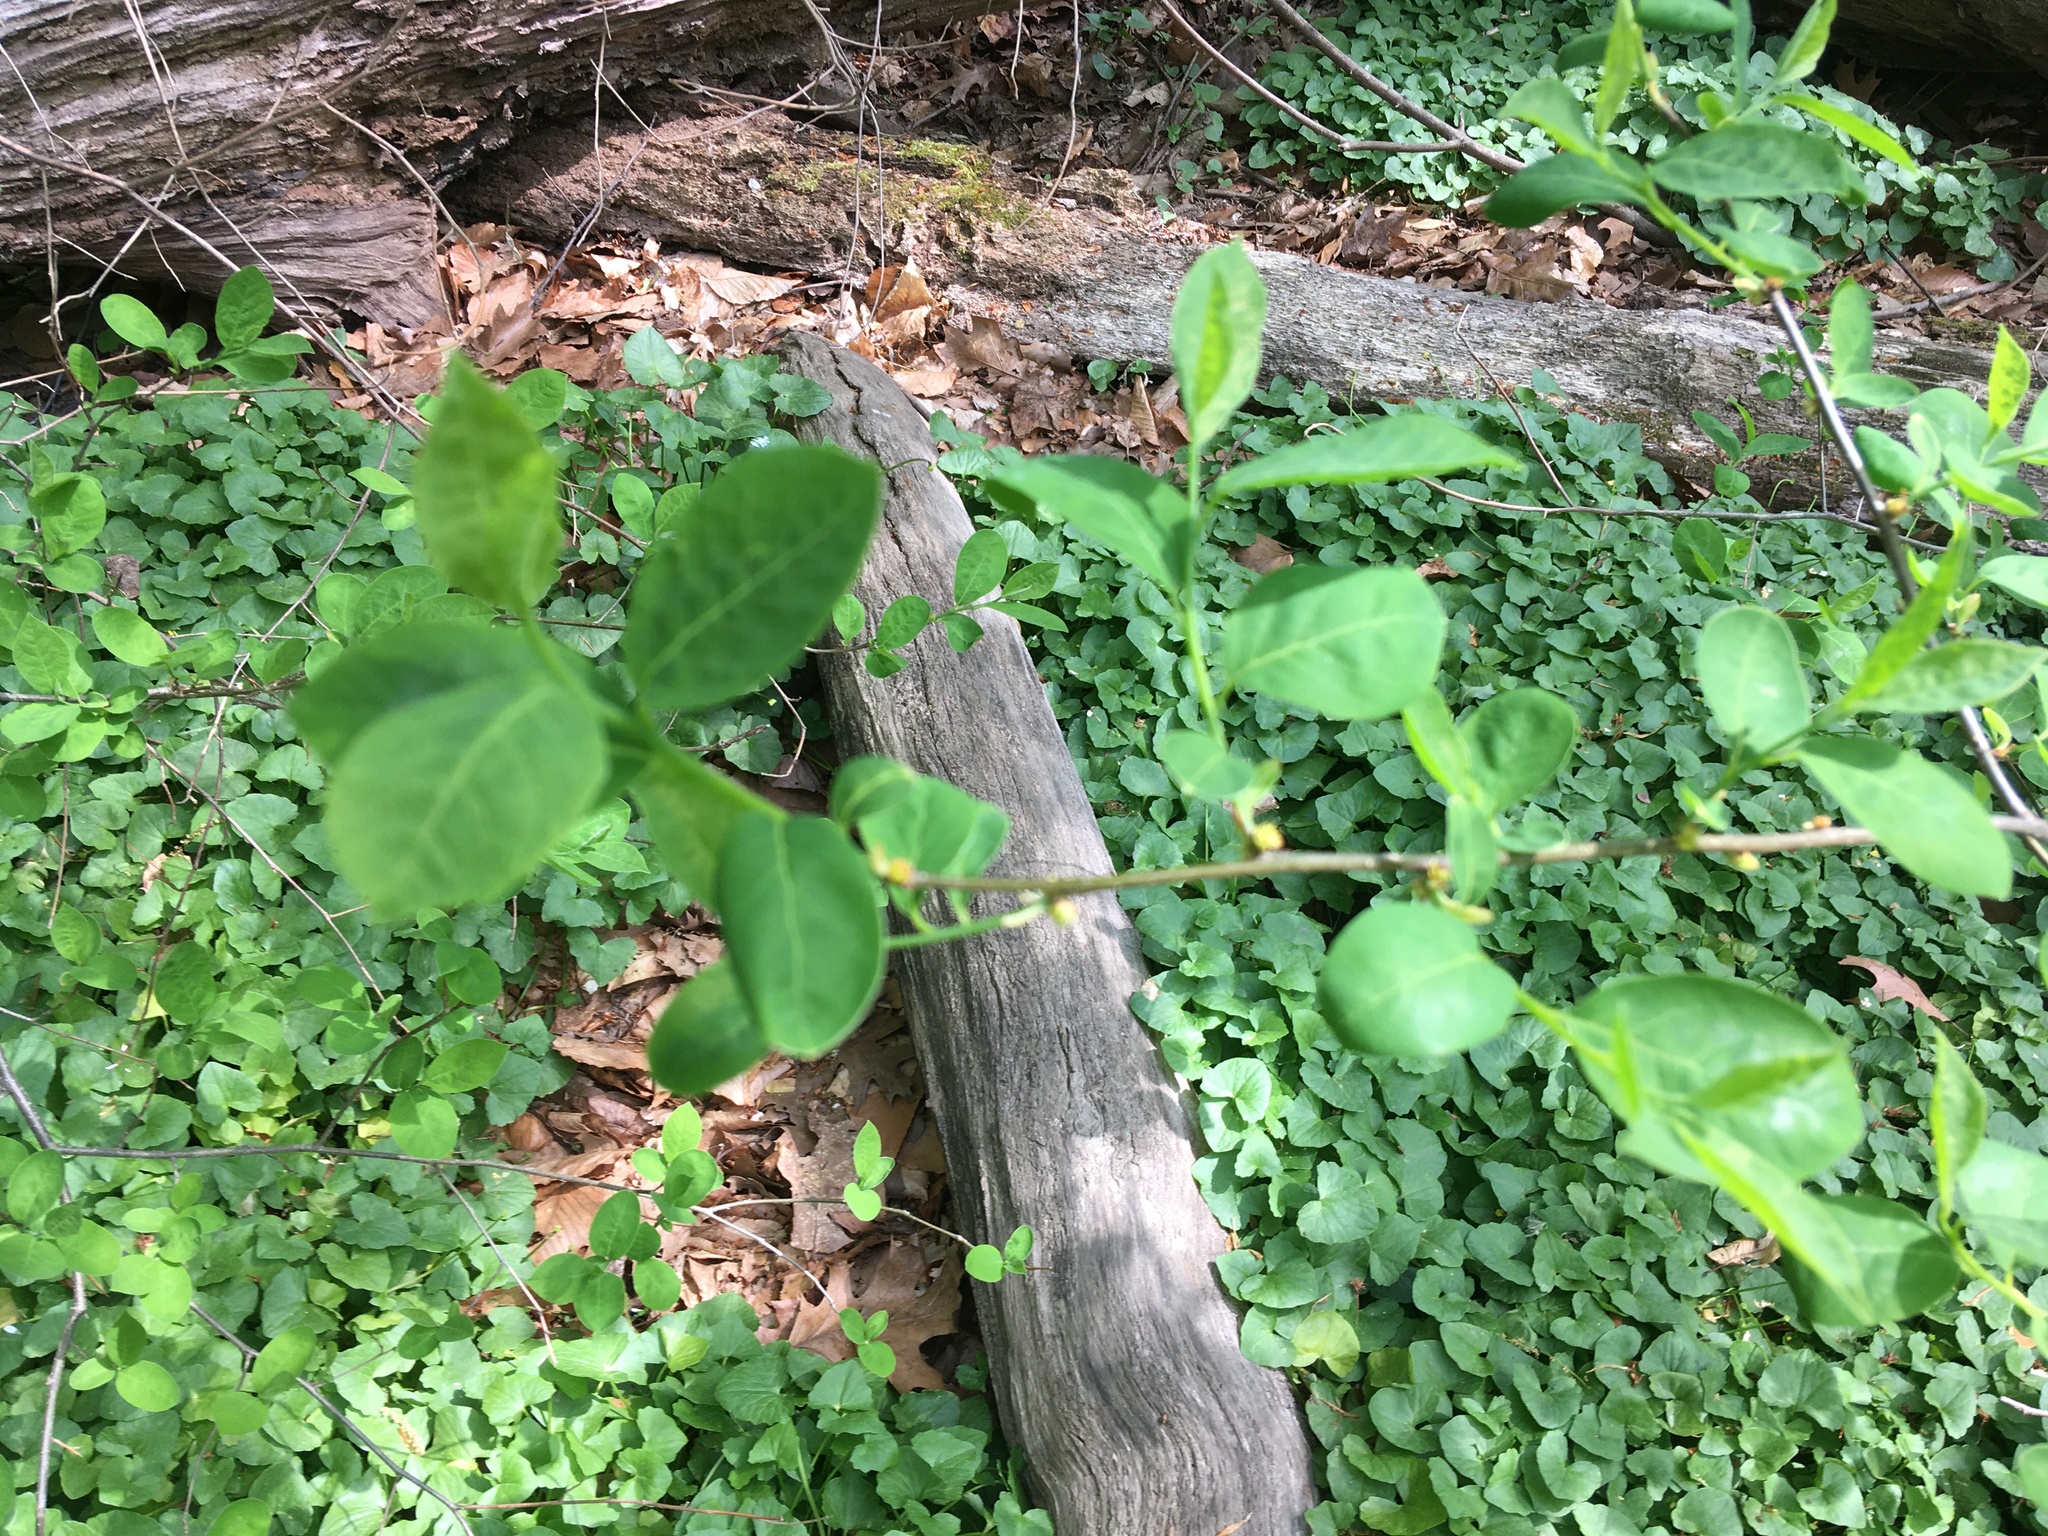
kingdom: Plantae
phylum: Tracheophyta
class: Magnoliopsida
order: Laurales
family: Lauraceae
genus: Lindera
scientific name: Lindera benzoin
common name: Spicebush
